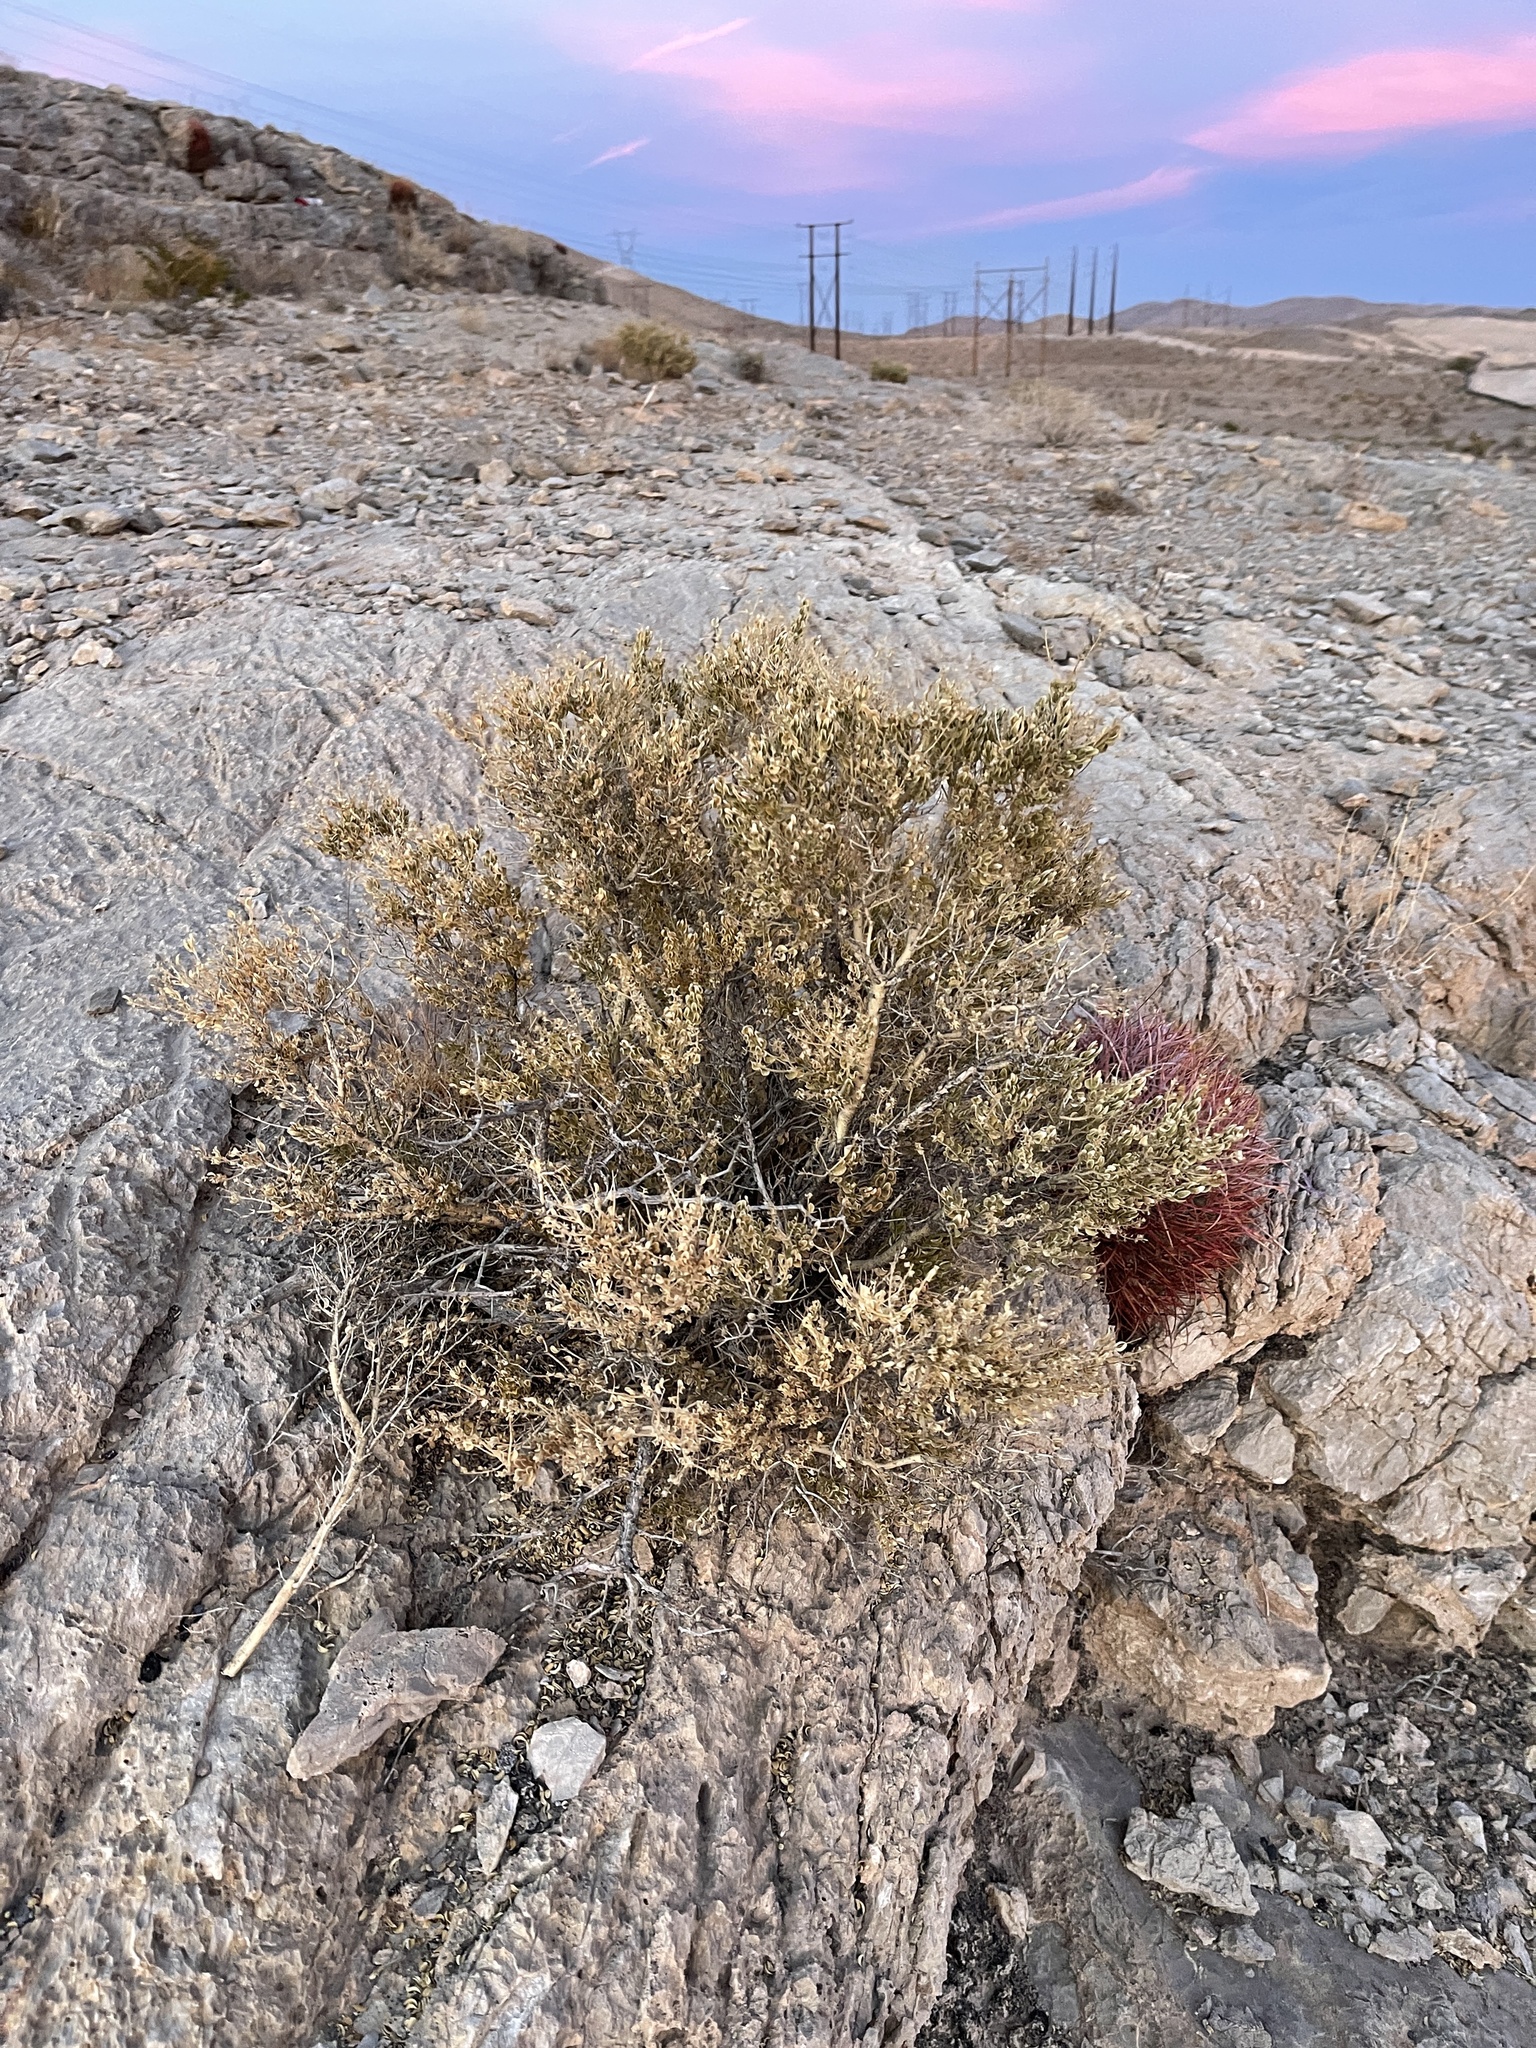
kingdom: Plantae
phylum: Tracheophyta
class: Magnoliopsida
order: Celastrales
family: Celastraceae
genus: Mortonia
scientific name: Mortonia utahensis
